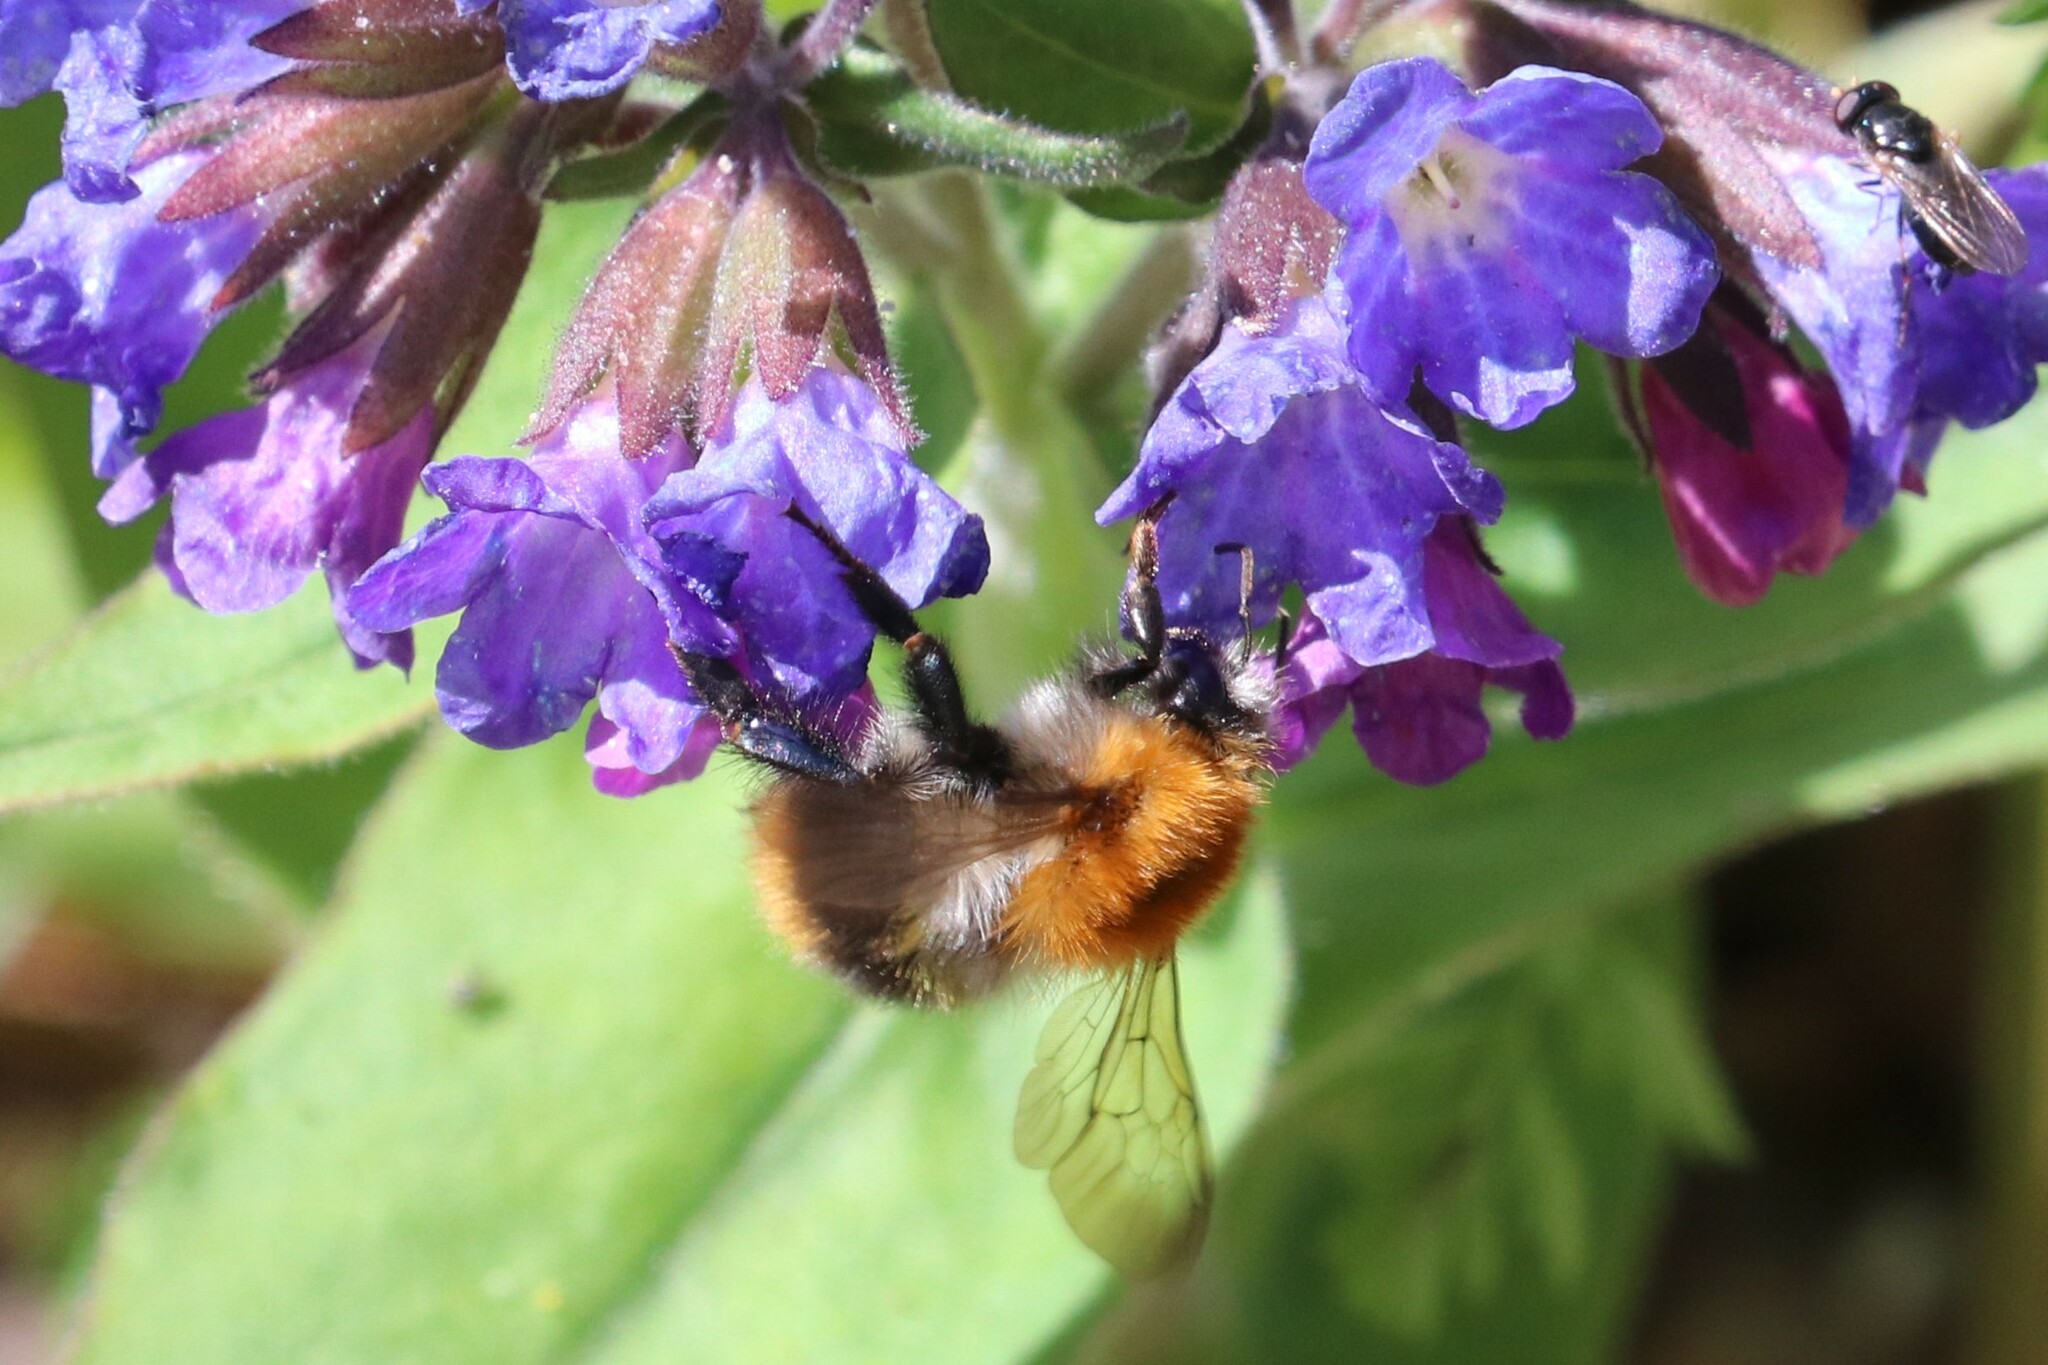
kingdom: Animalia
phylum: Arthropoda
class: Insecta
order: Hymenoptera
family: Apidae
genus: Bombus
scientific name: Bombus pascuorum
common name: Common carder bee
